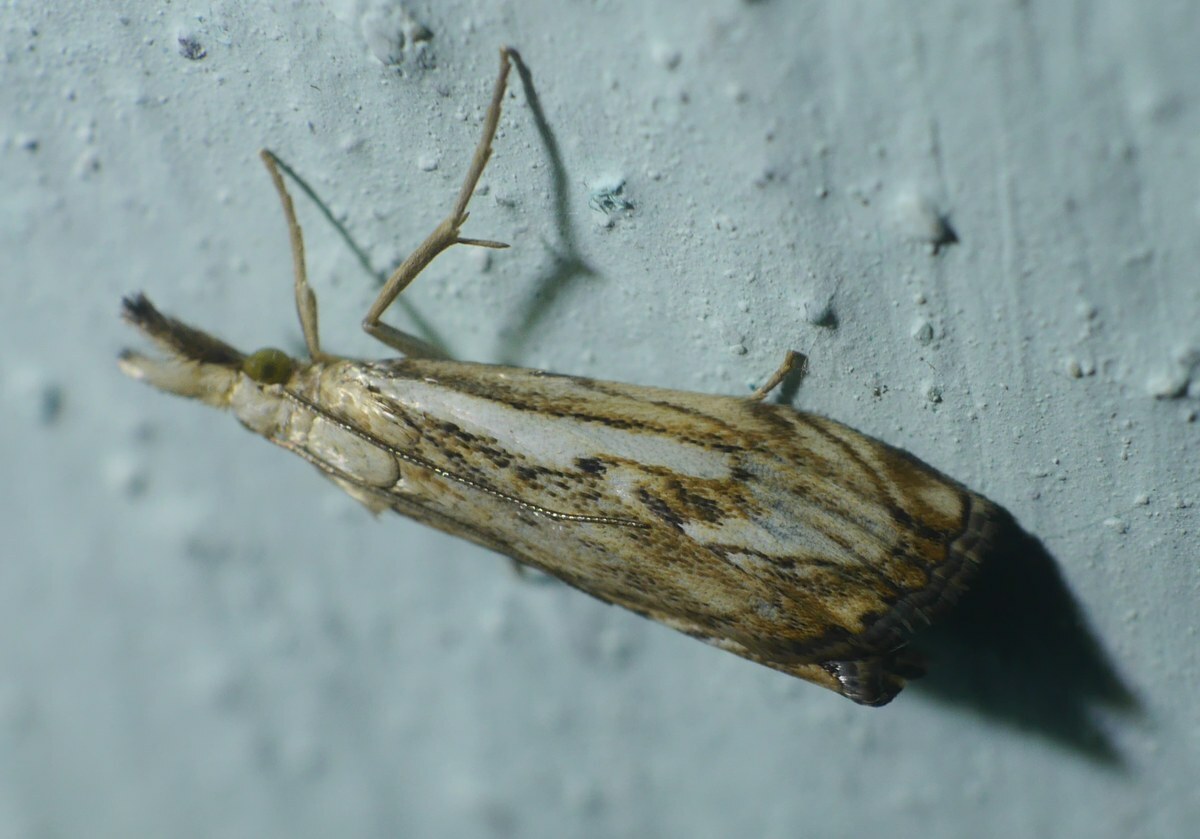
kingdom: Animalia
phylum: Arthropoda
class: Insecta
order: Lepidoptera
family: Crambidae
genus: Catoptria
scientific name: Catoptria falsella
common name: Chequered grass-veneer
